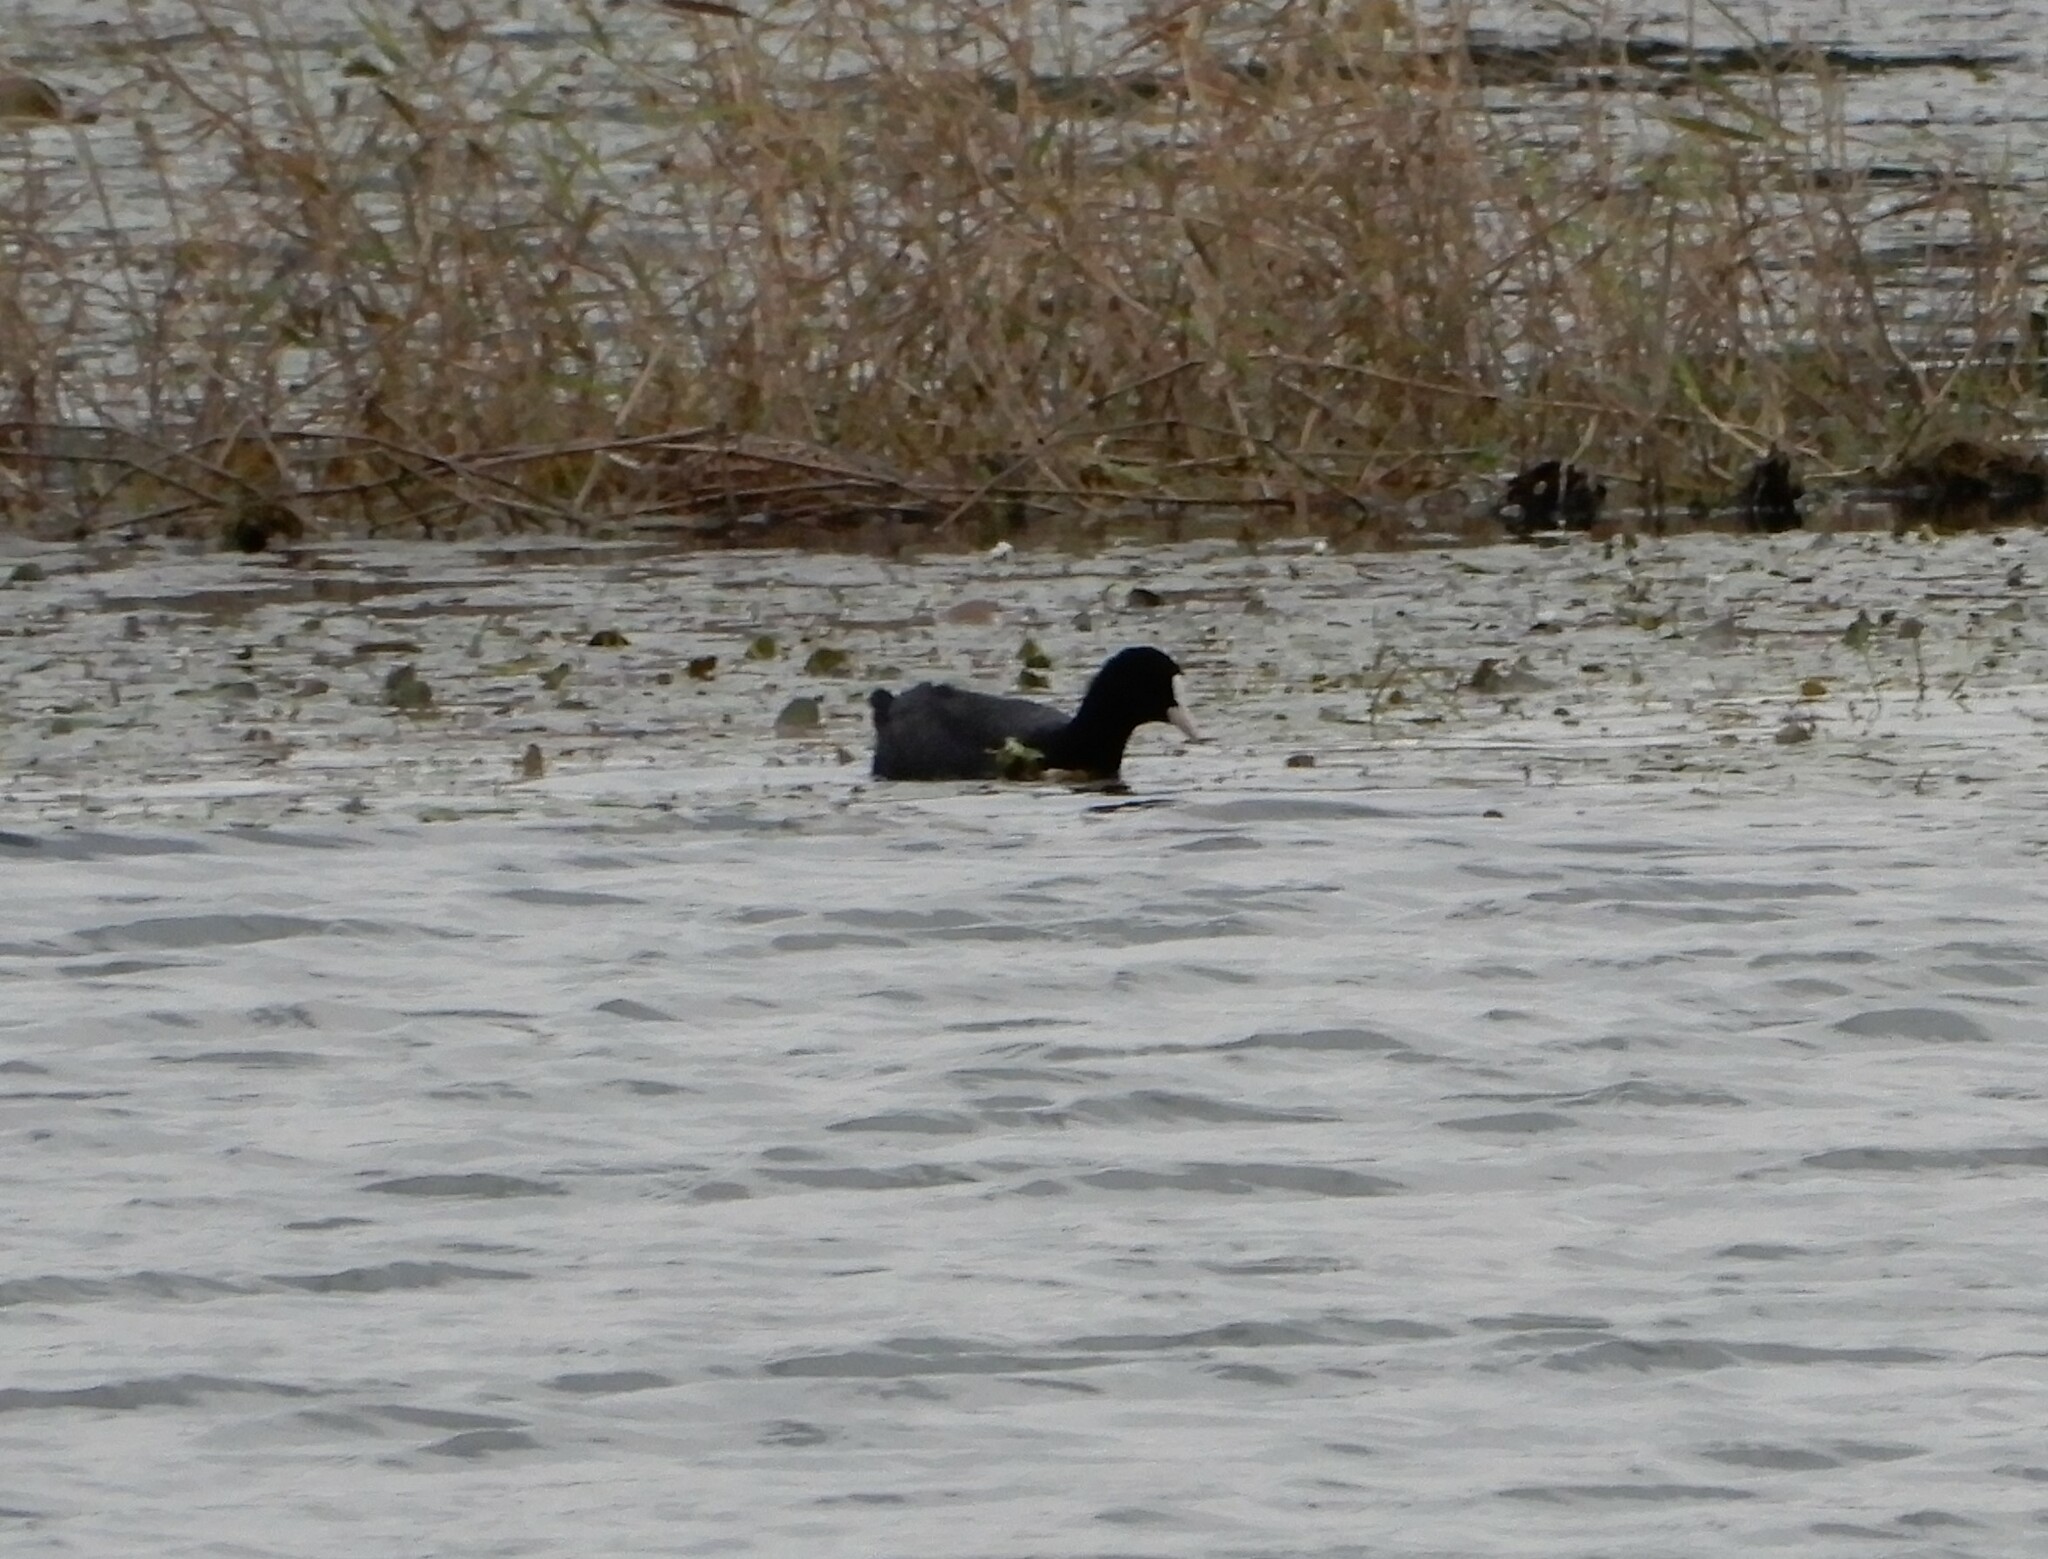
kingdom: Animalia
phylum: Chordata
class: Aves
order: Gruiformes
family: Rallidae
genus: Fulica
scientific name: Fulica atra
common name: Eurasian coot
